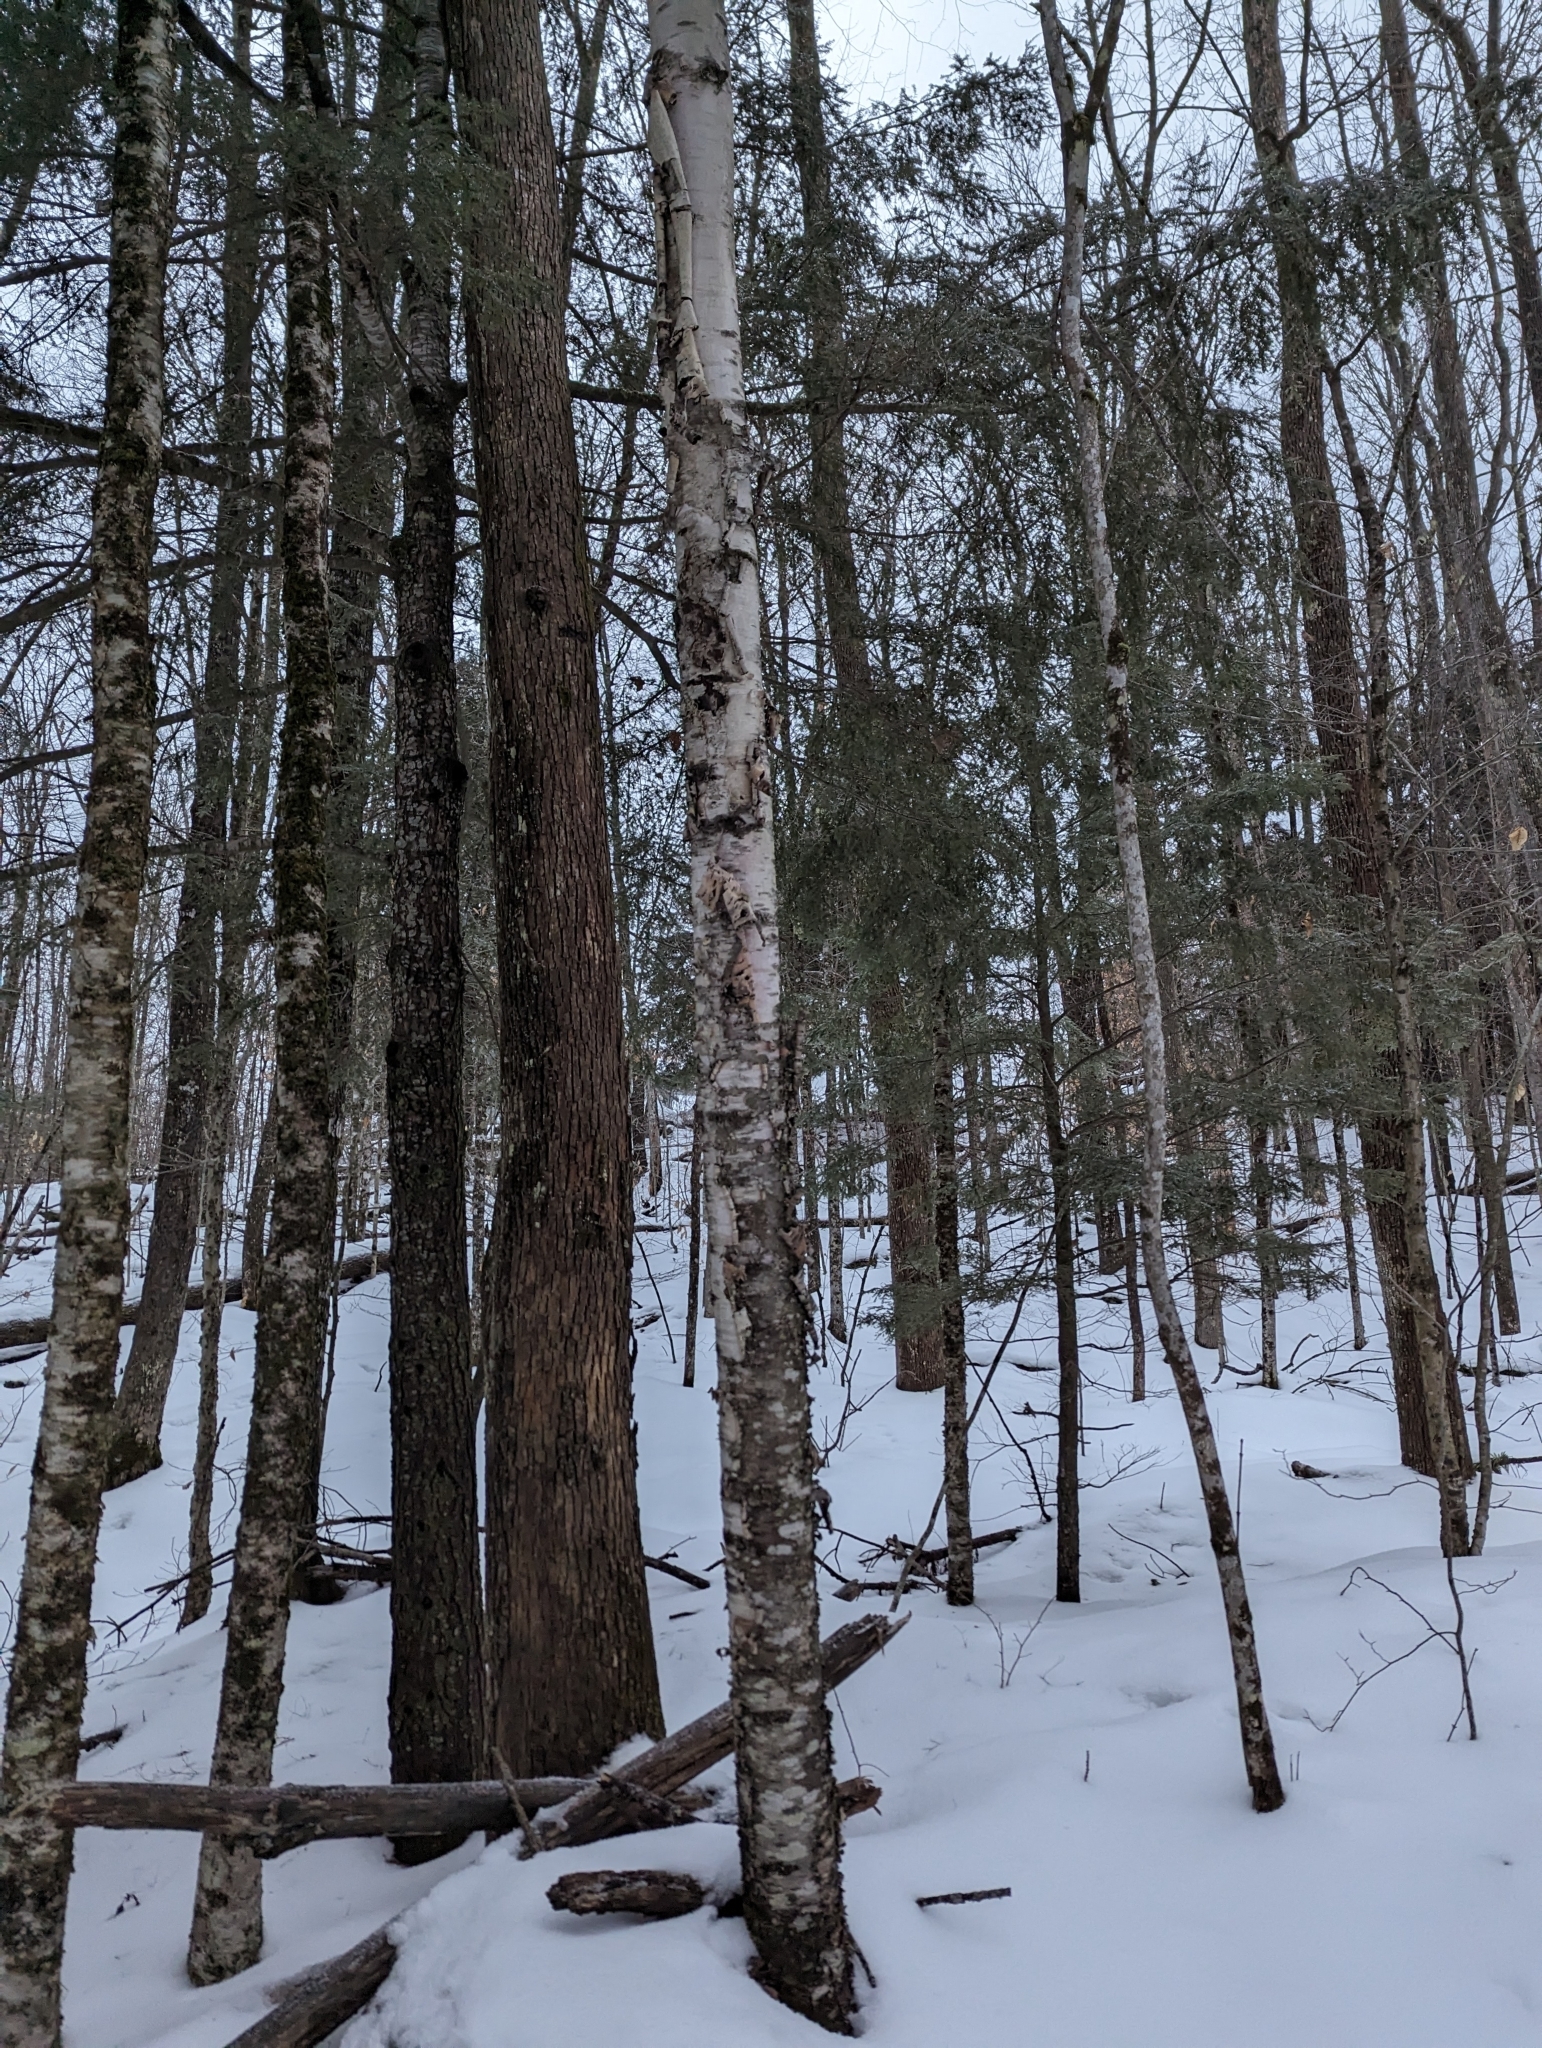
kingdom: Plantae
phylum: Tracheophyta
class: Magnoliopsida
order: Fagales
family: Betulaceae
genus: Betula
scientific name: Betula papyrifera
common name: Paper birch
